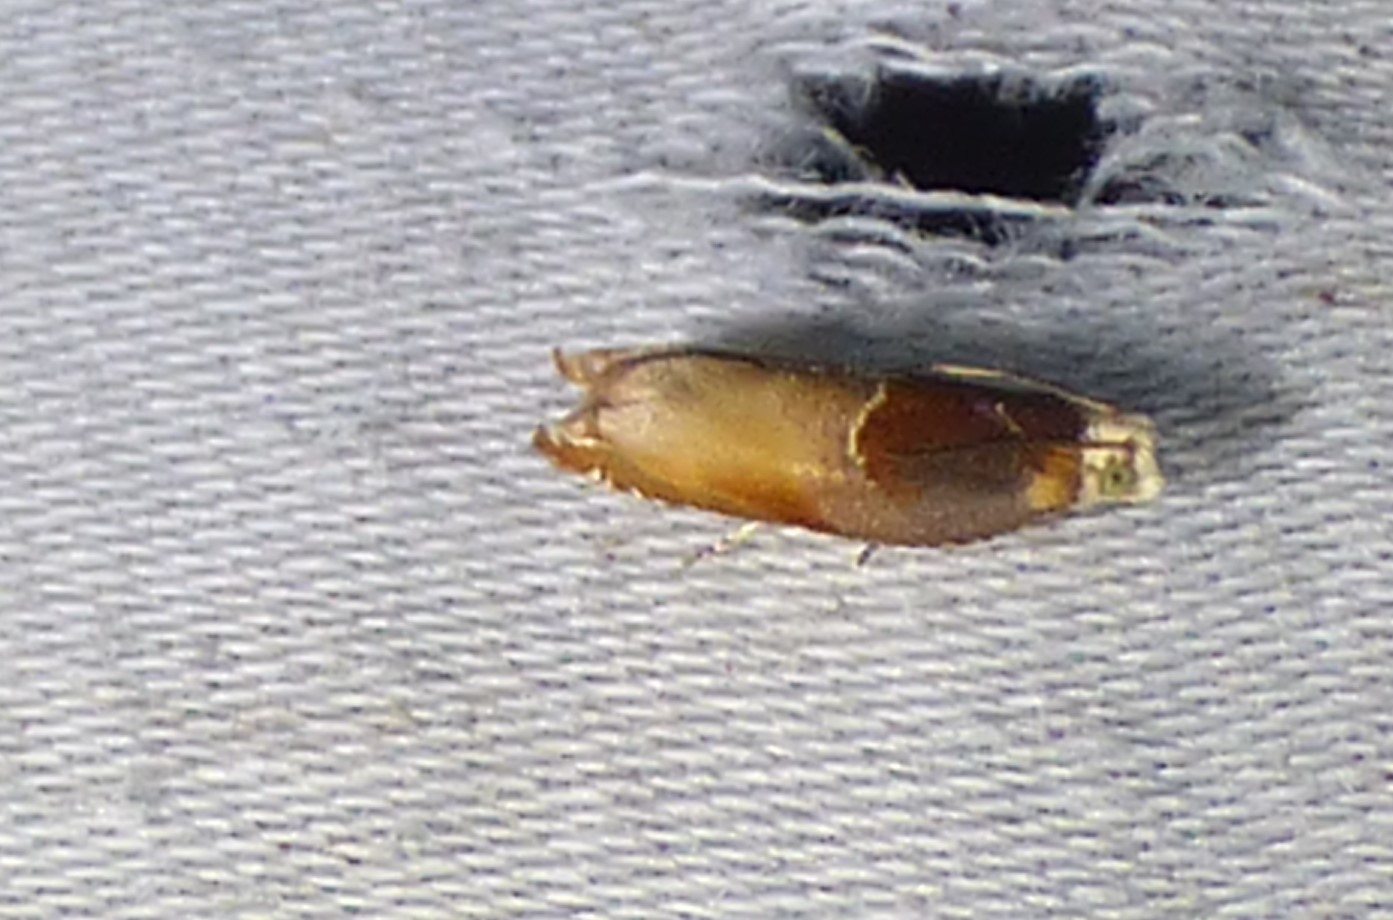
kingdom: Animalia
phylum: Arthropoda
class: Insecta
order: Lepidoptera
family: Tortricidae
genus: Ancylis
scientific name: Ancylis divisana
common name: Two-toned ancylis moth
